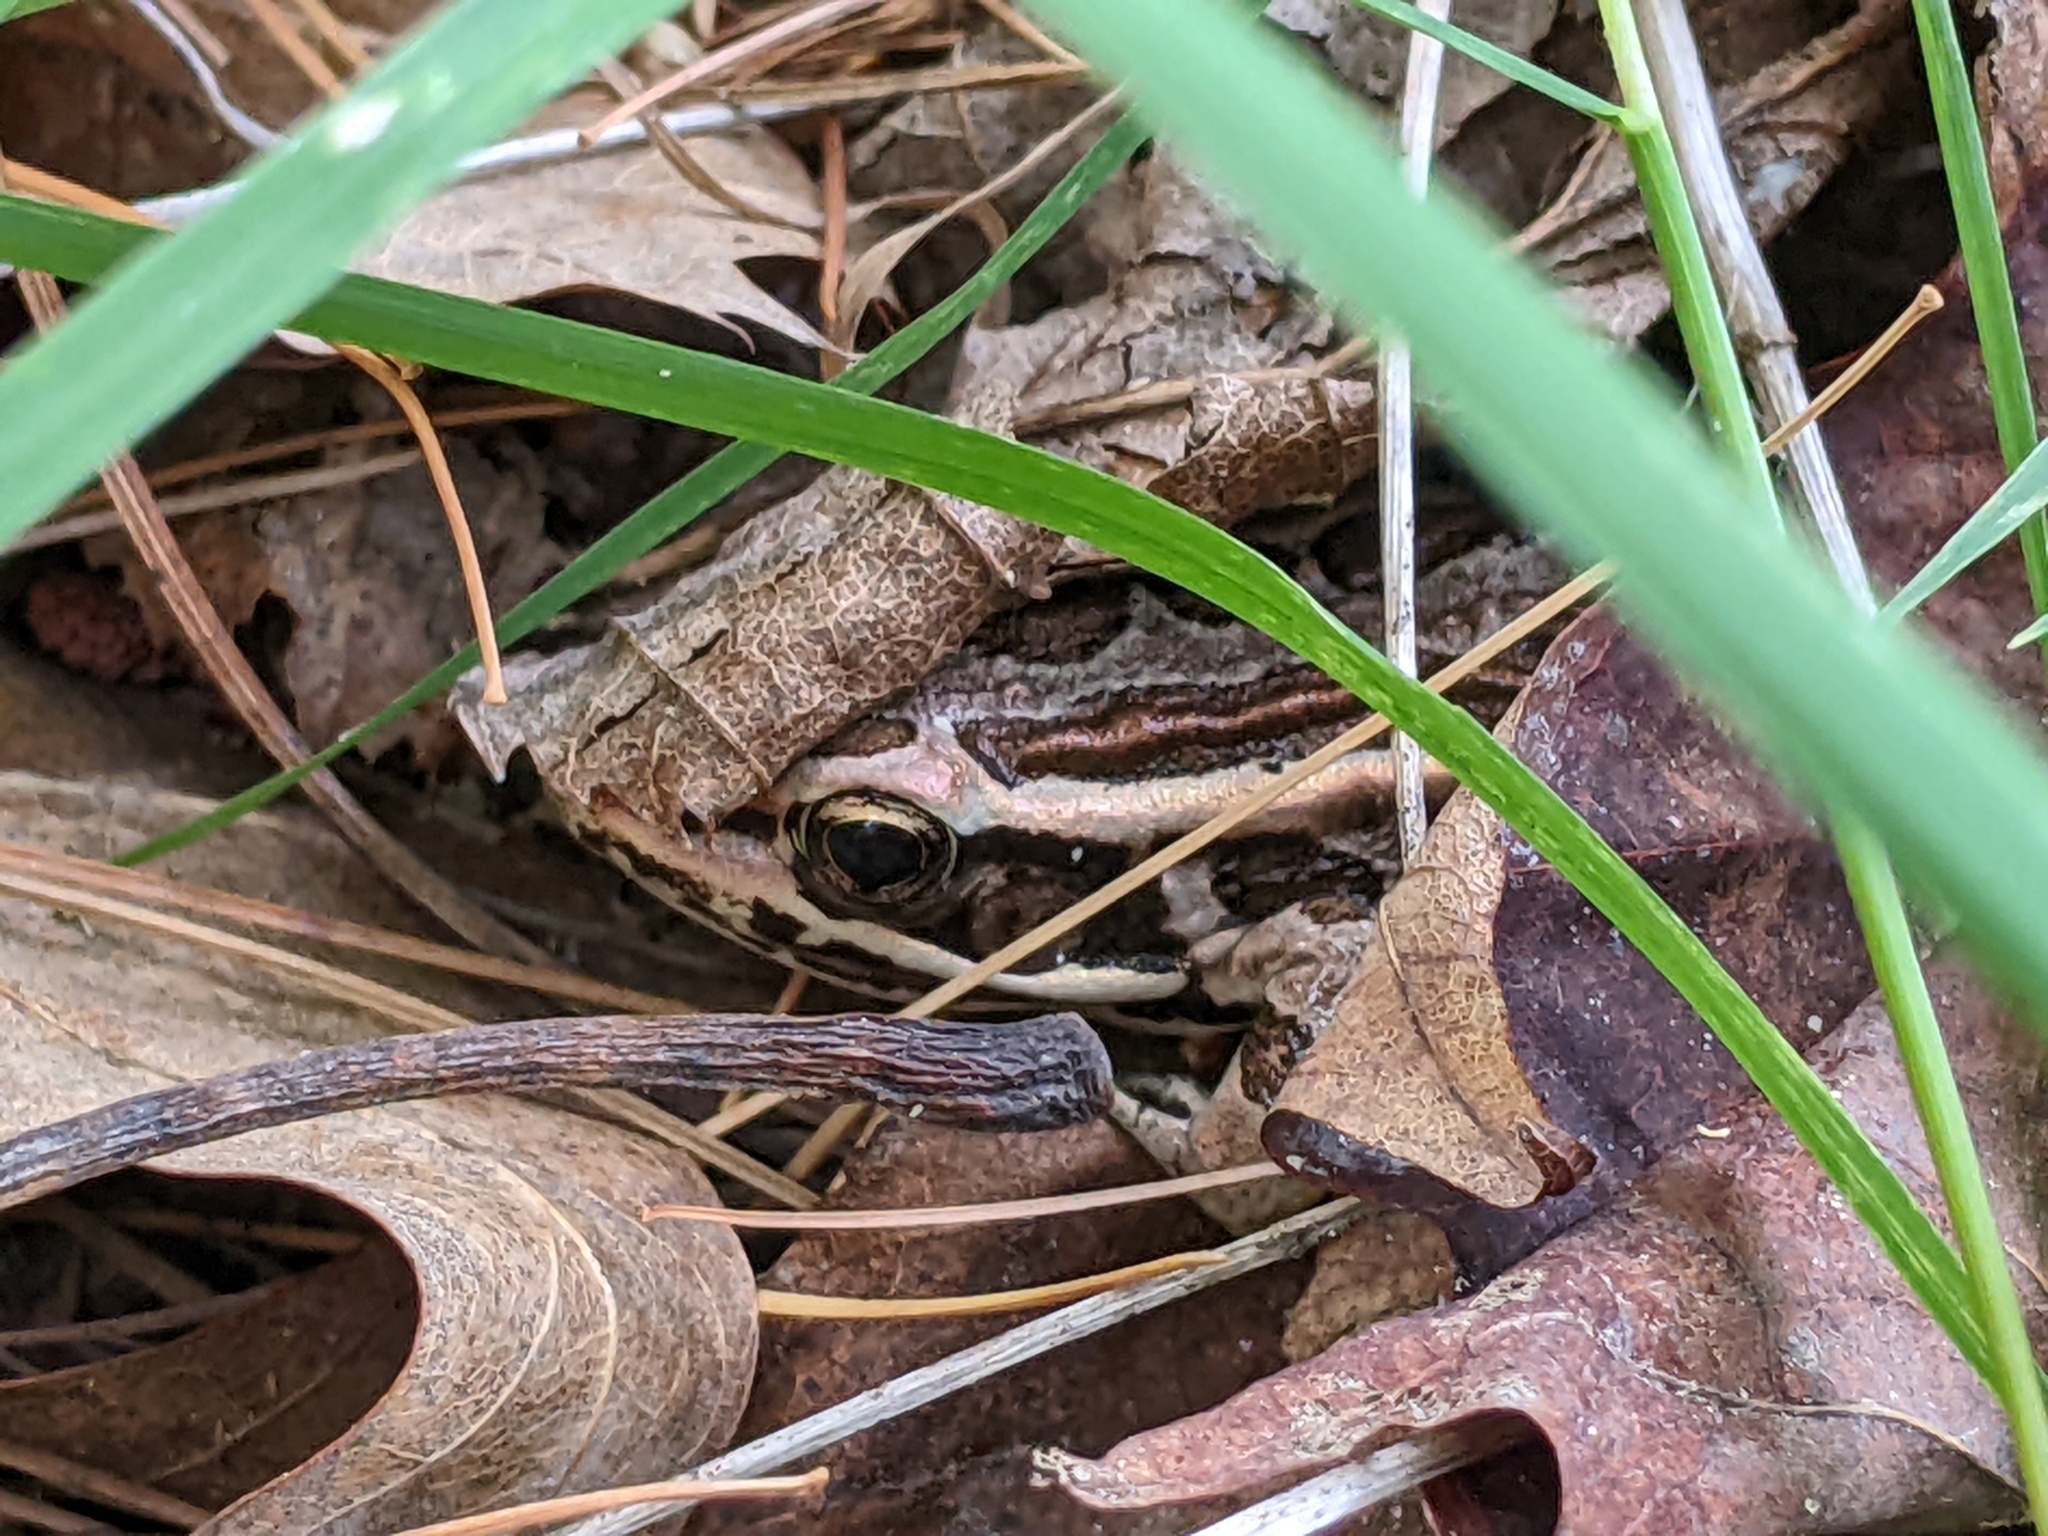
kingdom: Animalia
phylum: Chordata
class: Amphibia
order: Anura
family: Ranidae
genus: Lithobates
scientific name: Lithobates palustris
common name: Pickerel frog
